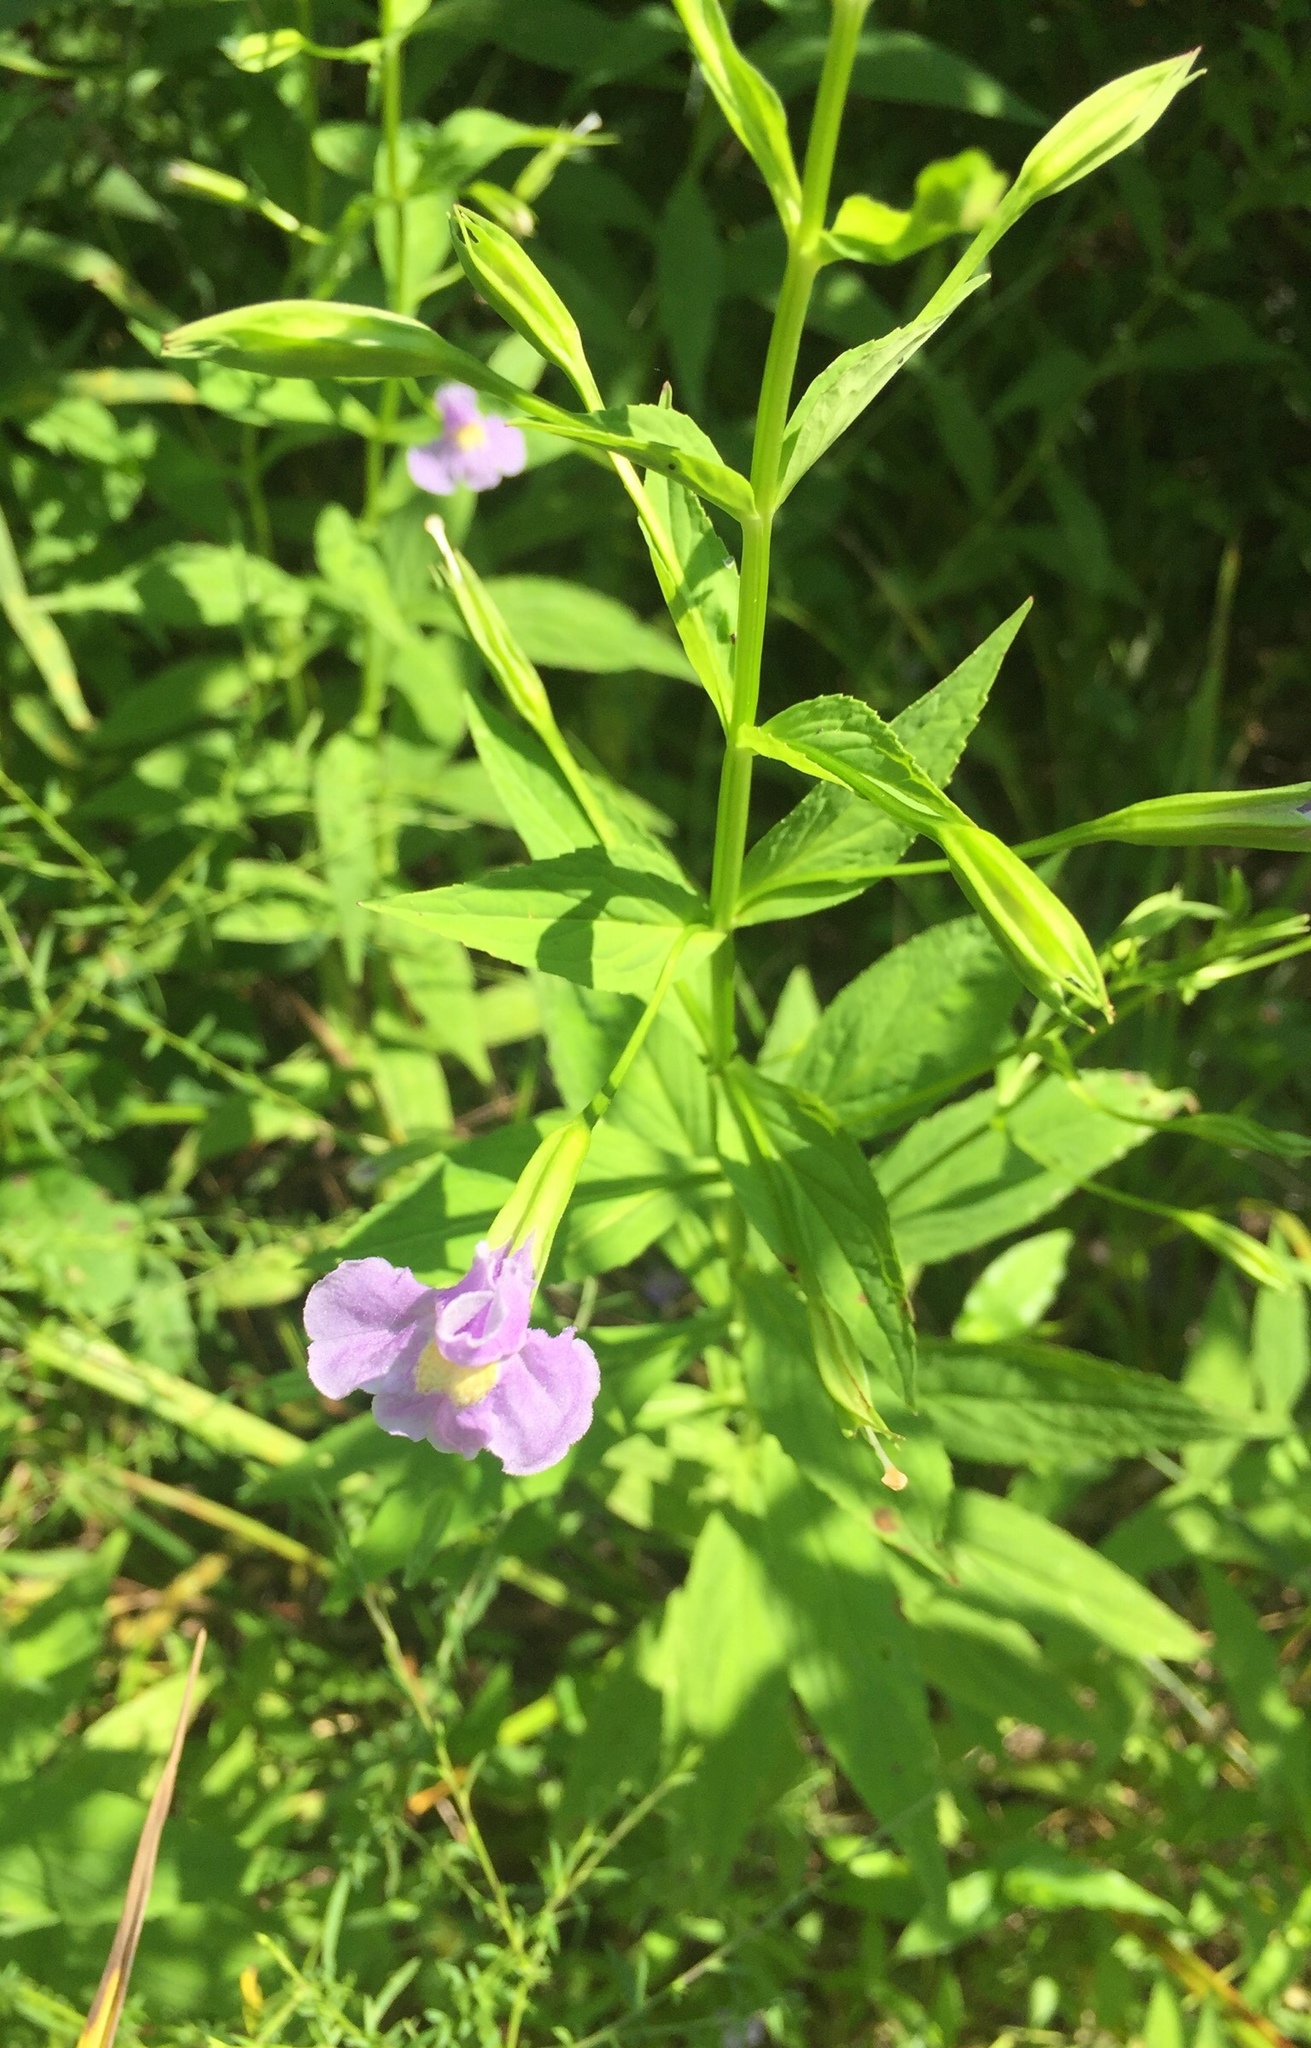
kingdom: Plantae
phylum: Tracheophyta
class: Magnoliopsida
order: Lamiales
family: Phrymaceae
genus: Mimulus
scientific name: Mimulus ringens
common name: Allegheny monkeyflower
